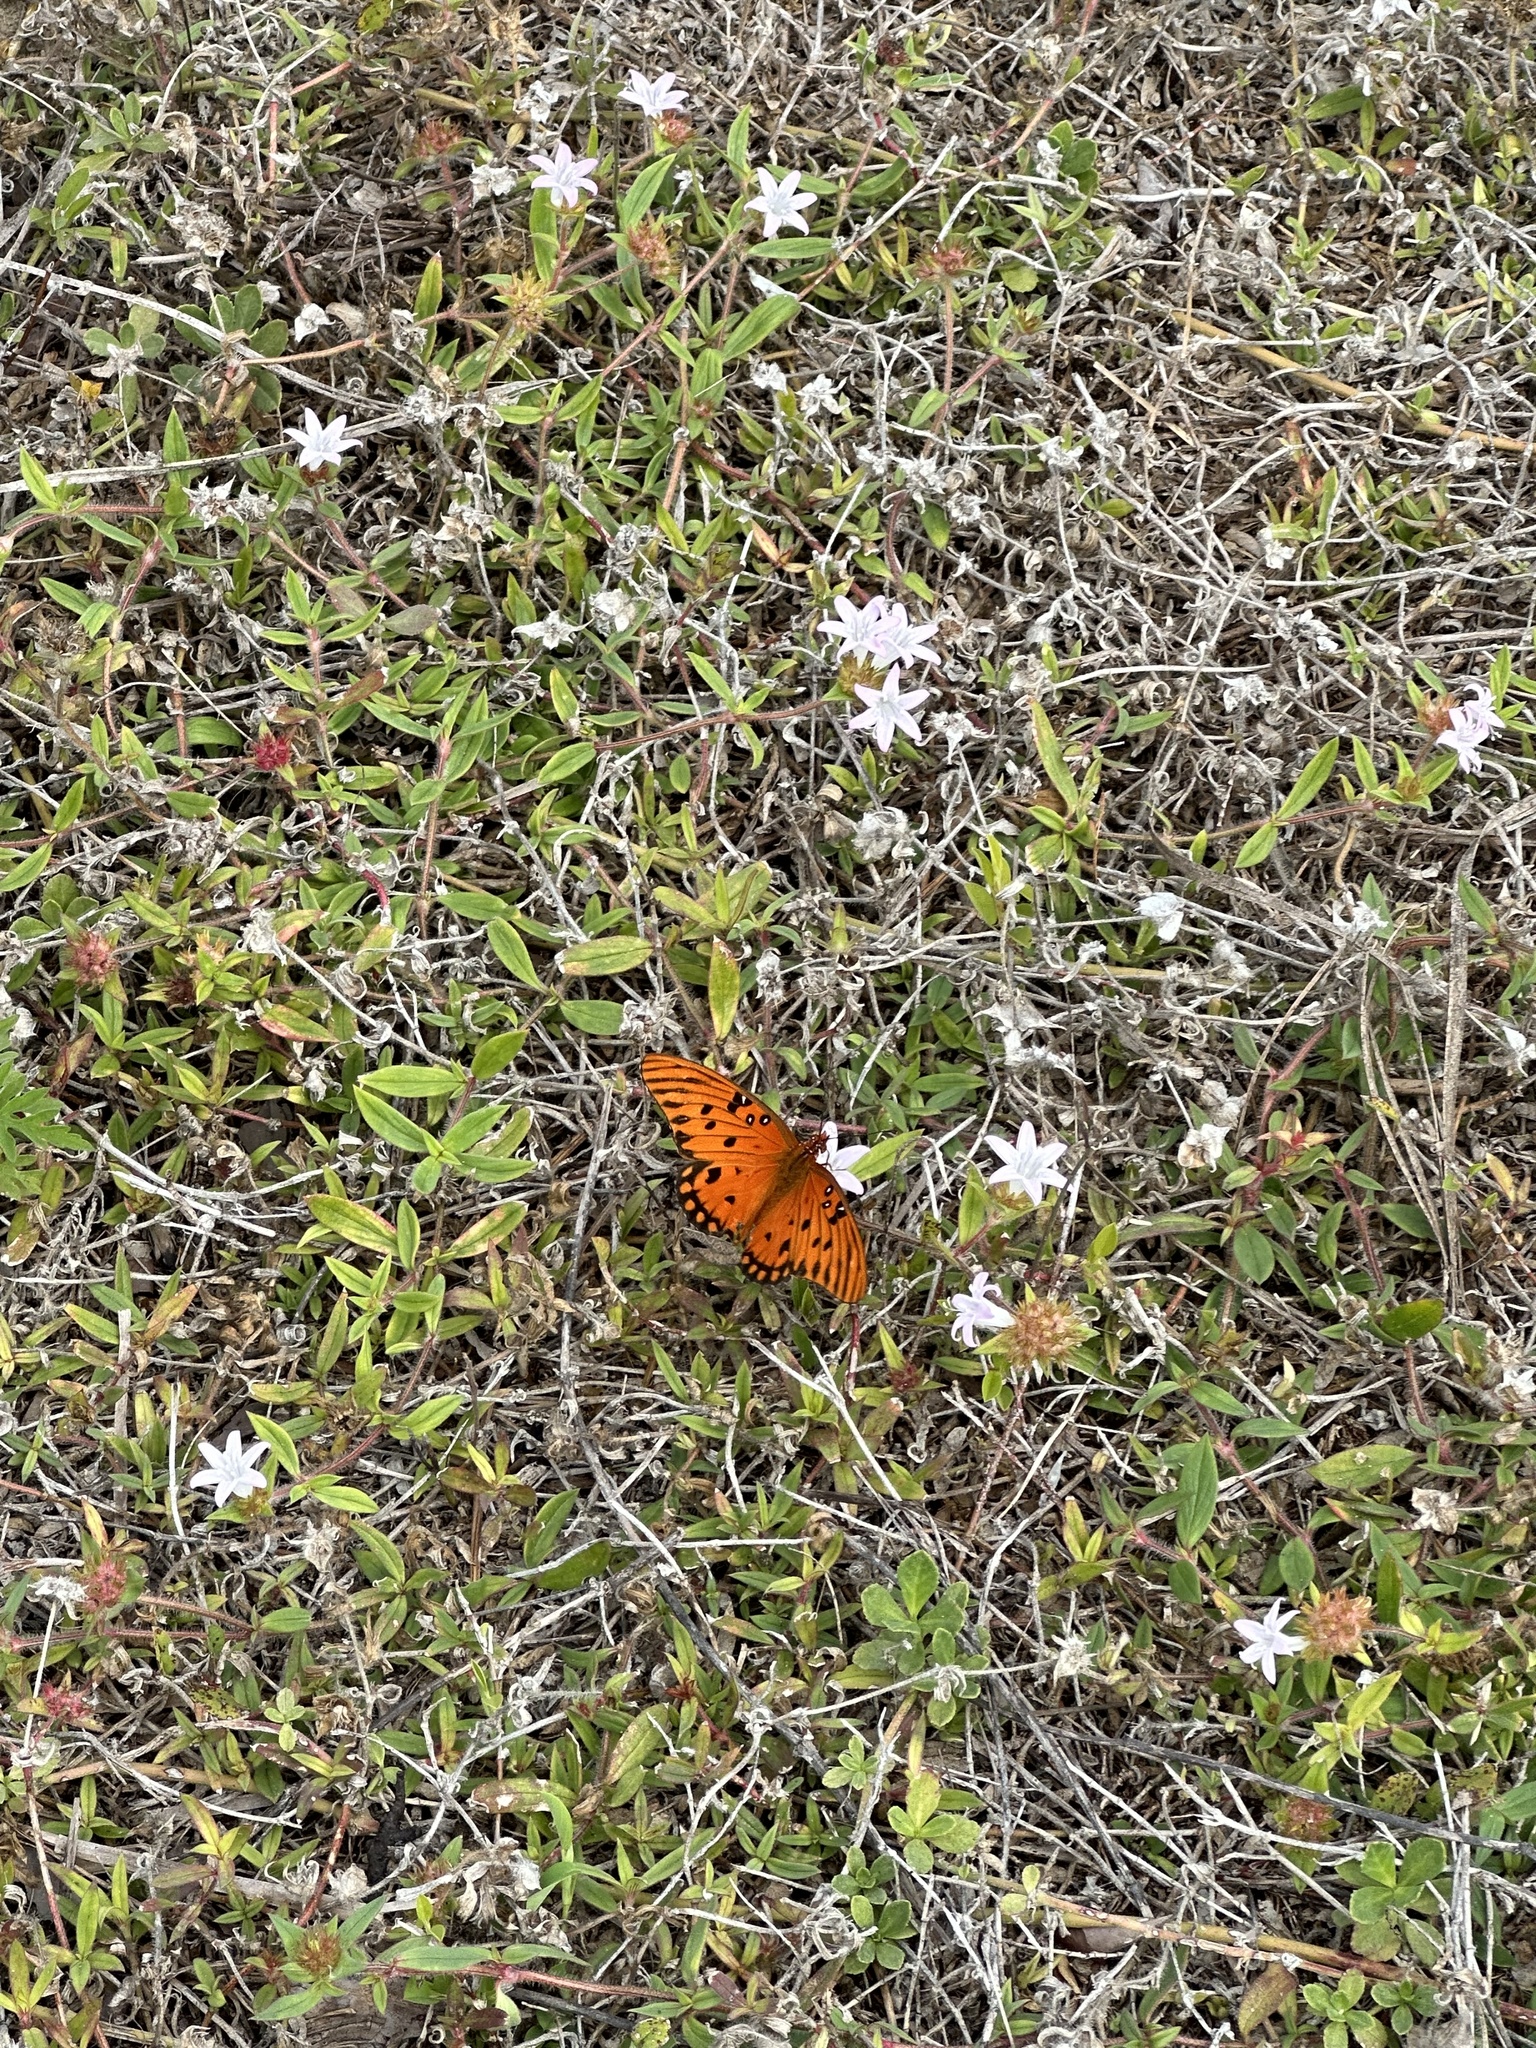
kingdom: Animalia
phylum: Arthropoda
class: Insecta
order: Lepidoptera
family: Nymphalidae
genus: Dione
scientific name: Dione vanillae
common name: Gulf fritillary
